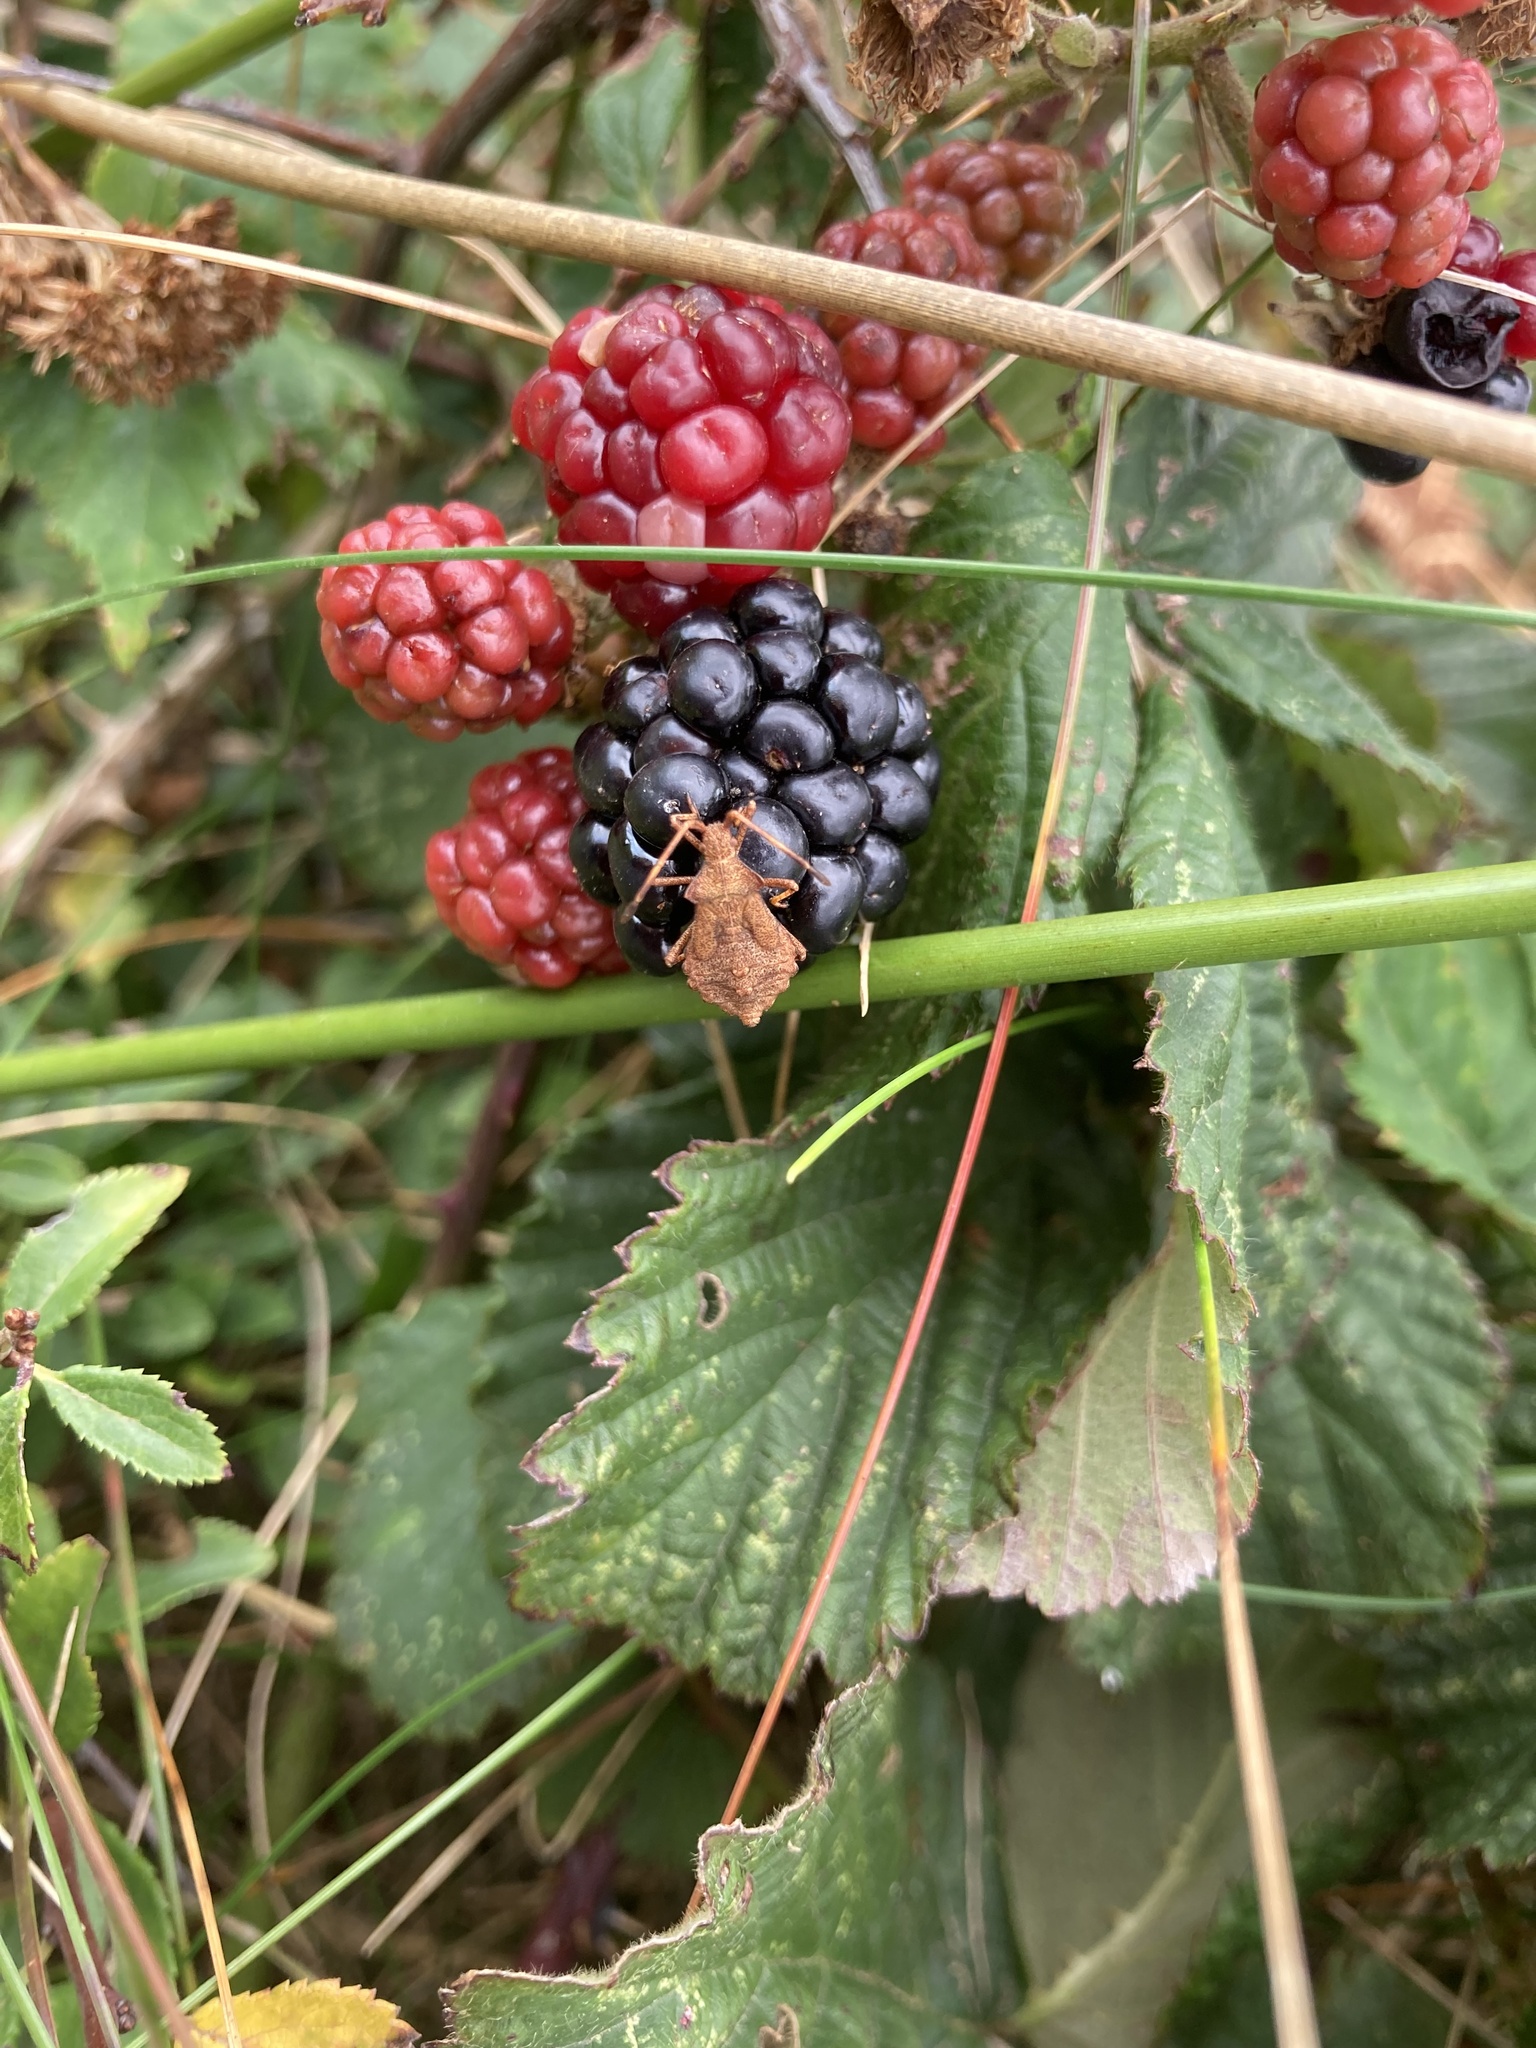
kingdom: Animalia
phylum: Arthropoda
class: Insecta
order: Hemiptera
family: Coreidae
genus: Coreus
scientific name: Coreus marginatus
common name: Dock bug
